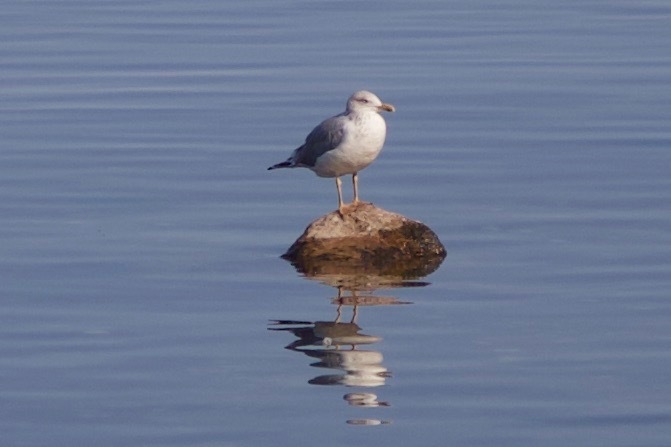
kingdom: Animalia
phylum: Chordata
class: Aves
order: Charadriiformes
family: Laridae
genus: Larus
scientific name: Larus argentatus
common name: Herring gull
